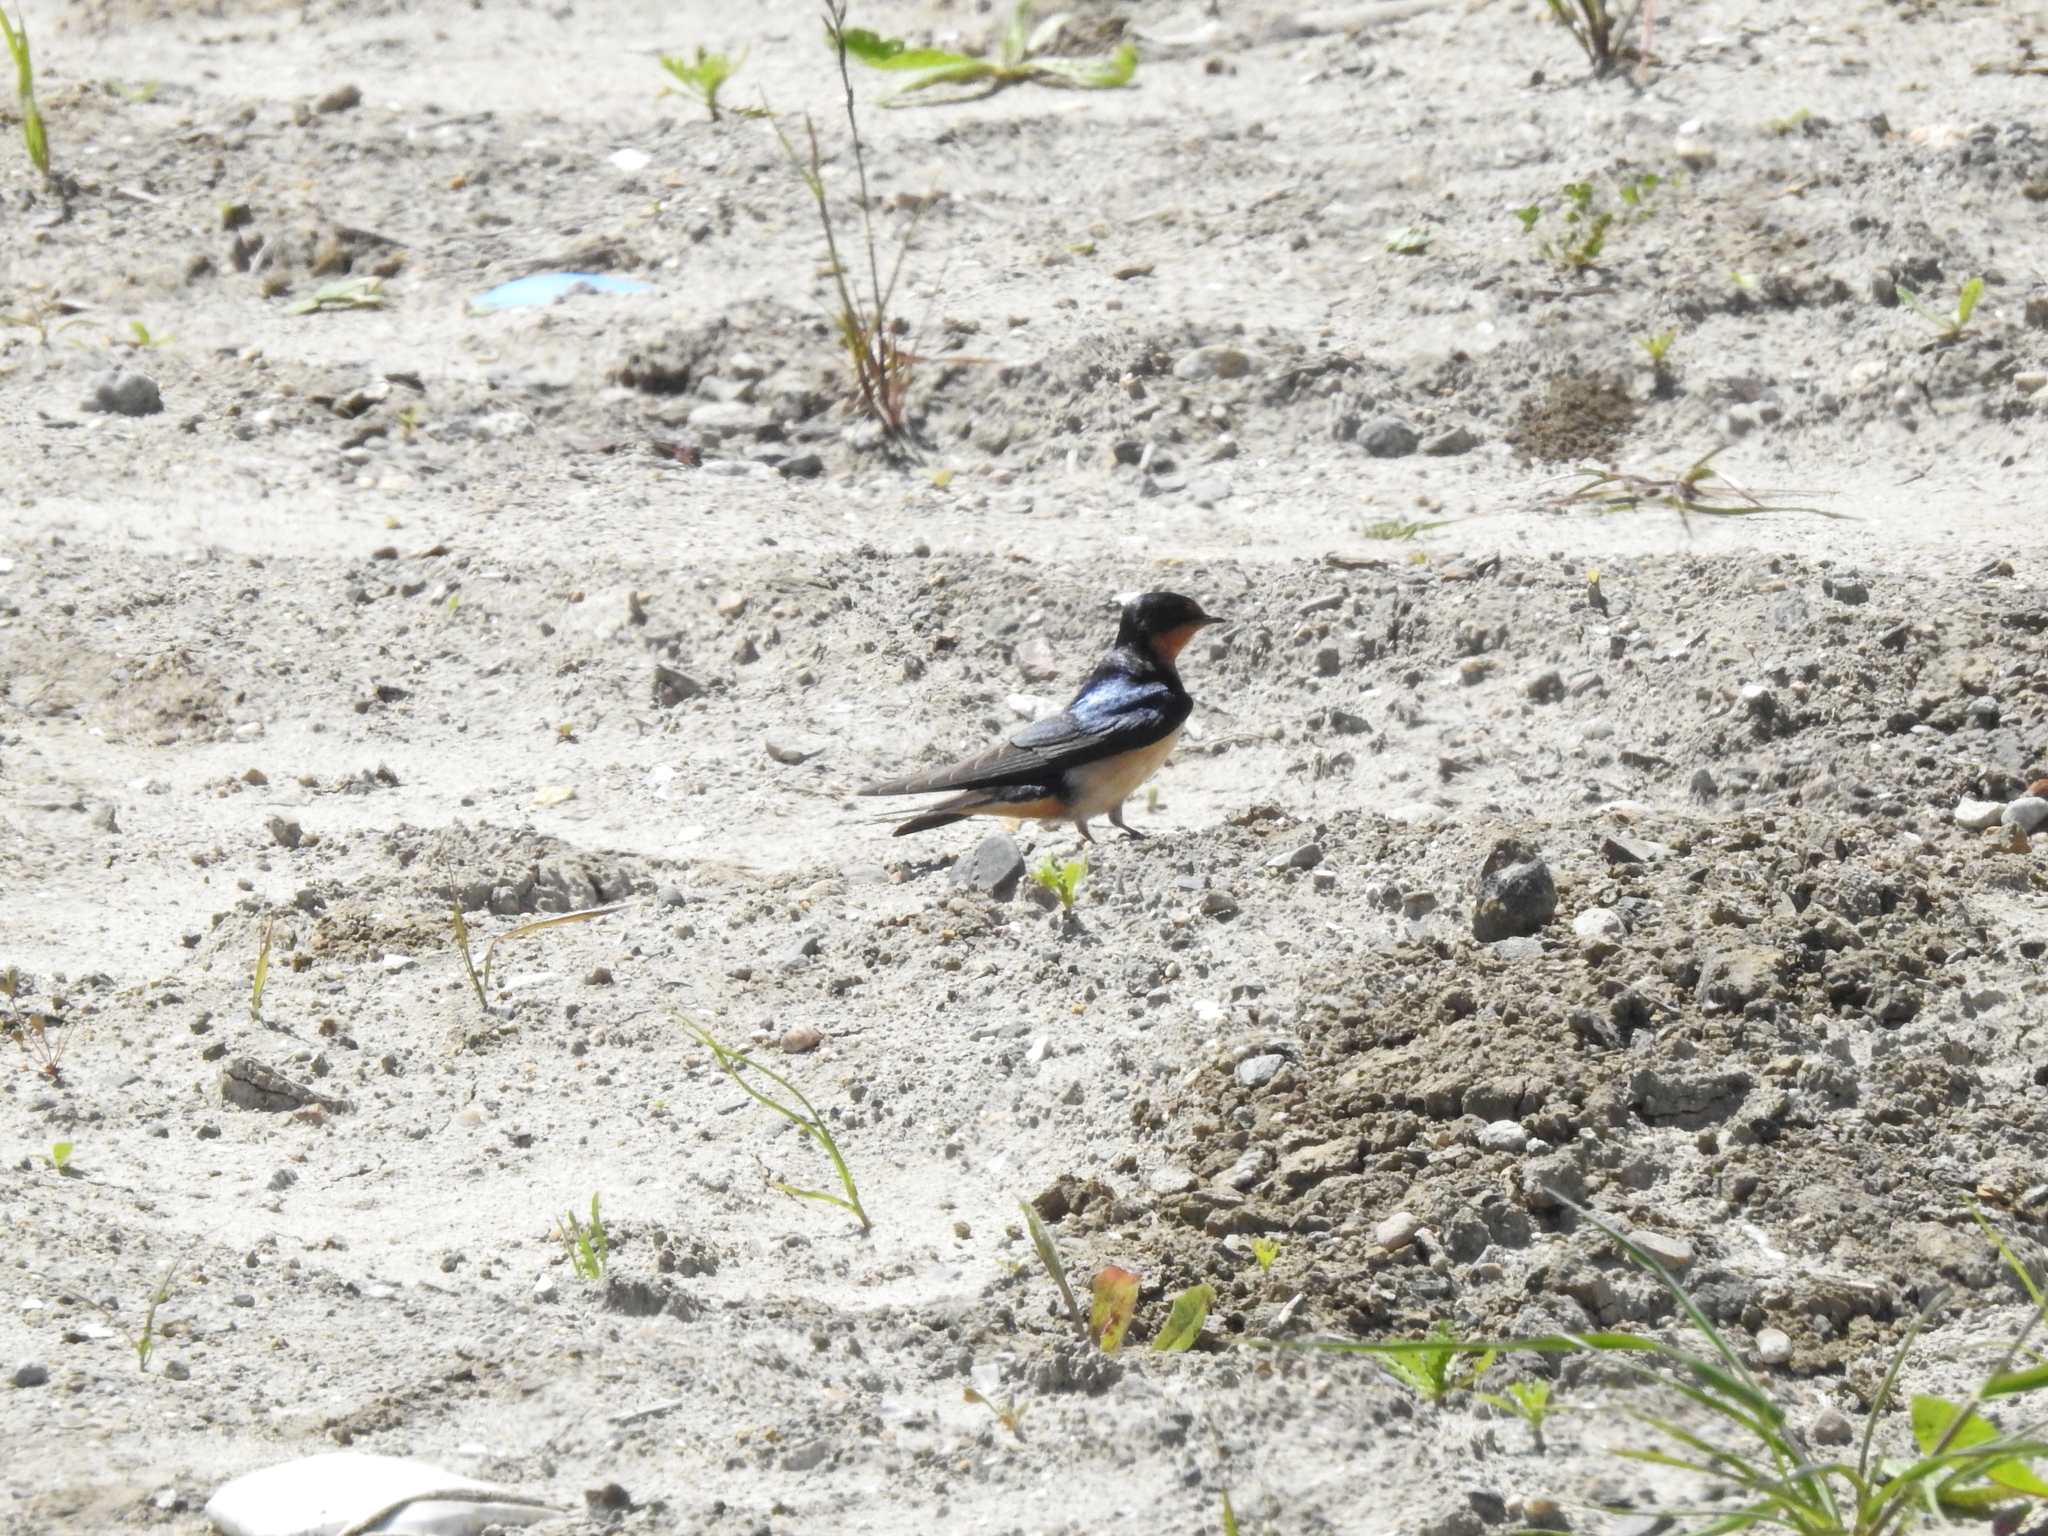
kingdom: Animalia
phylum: Chordata
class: Aves
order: Passeriformes
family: Hirundinidae
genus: Hirundo
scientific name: Hirundo rustica
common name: Barn swallow
